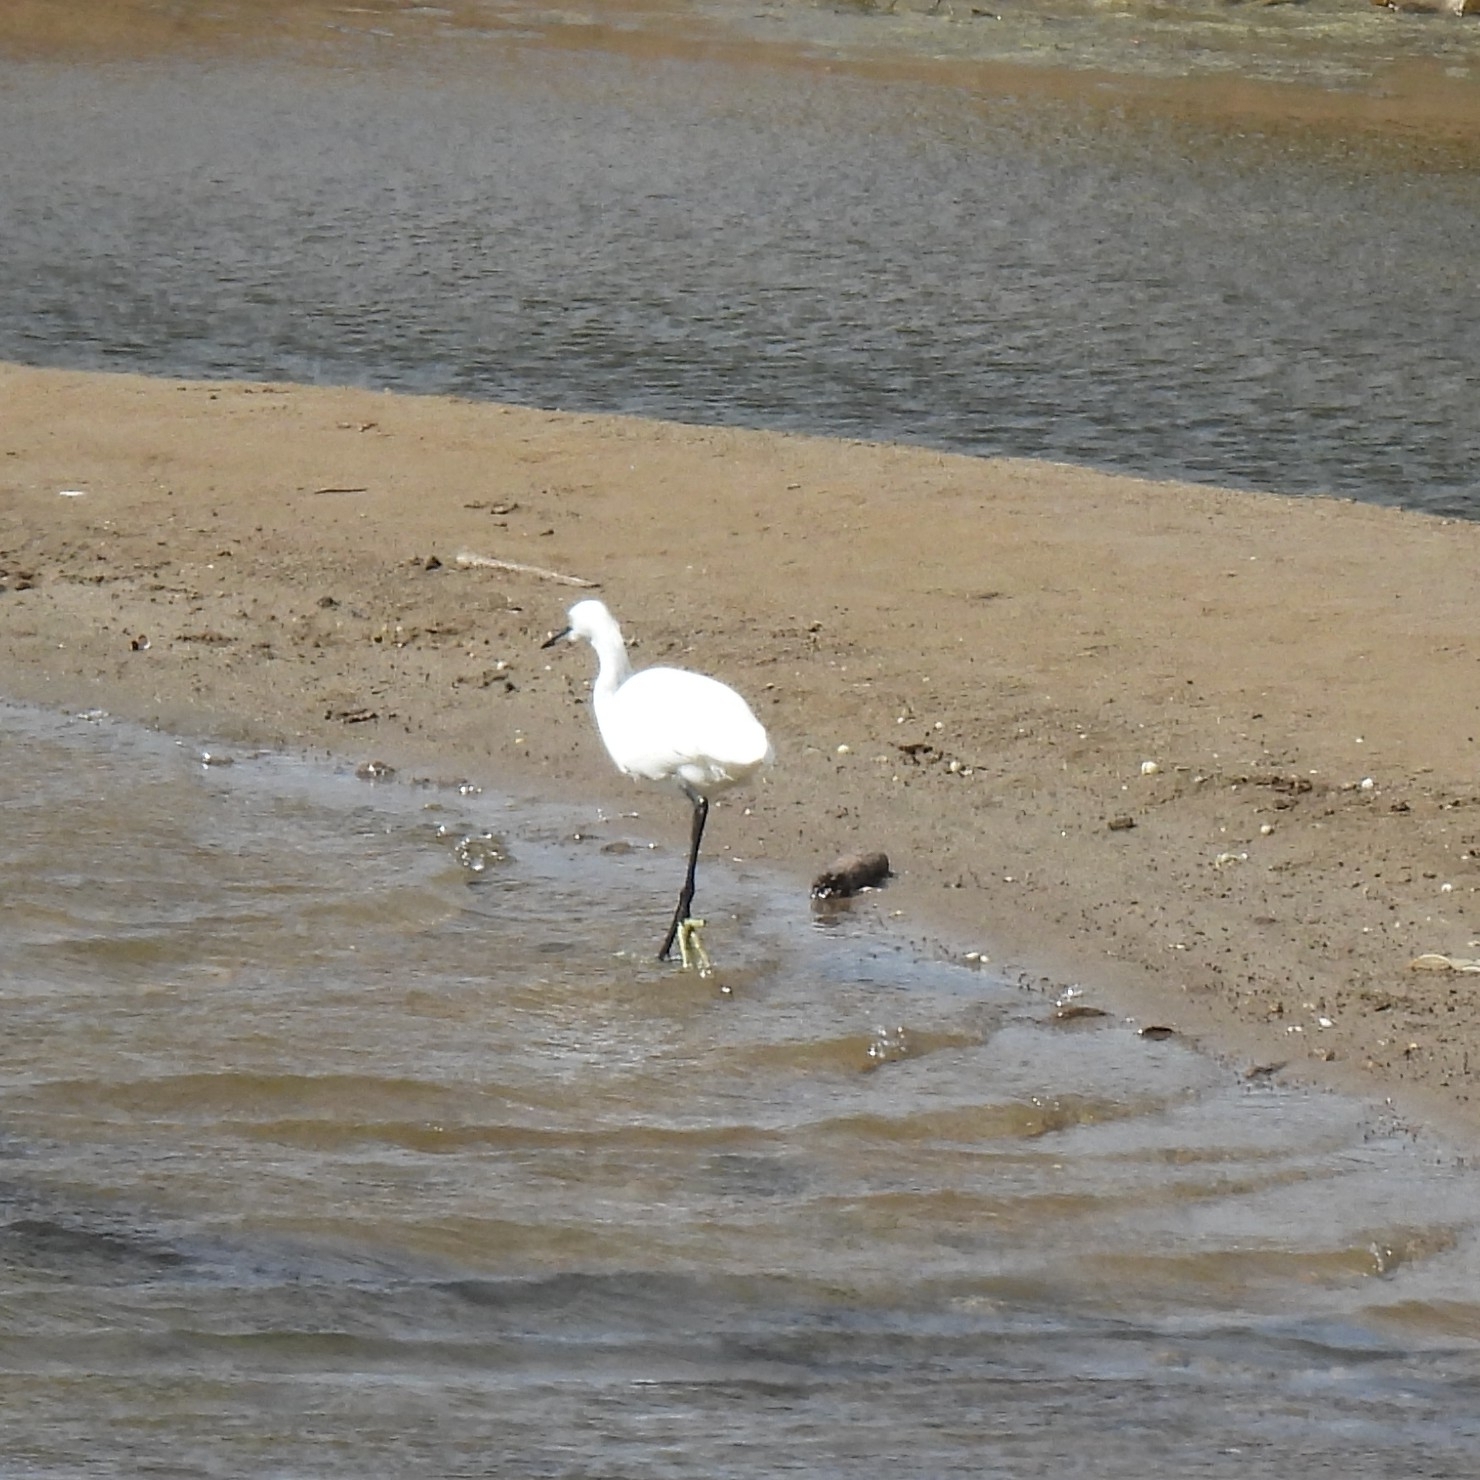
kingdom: Animalia
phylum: Chordata
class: Aves
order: Pelecaniformes
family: Ardeidae
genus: Egretta
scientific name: Egretta garzetta
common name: Little egret
